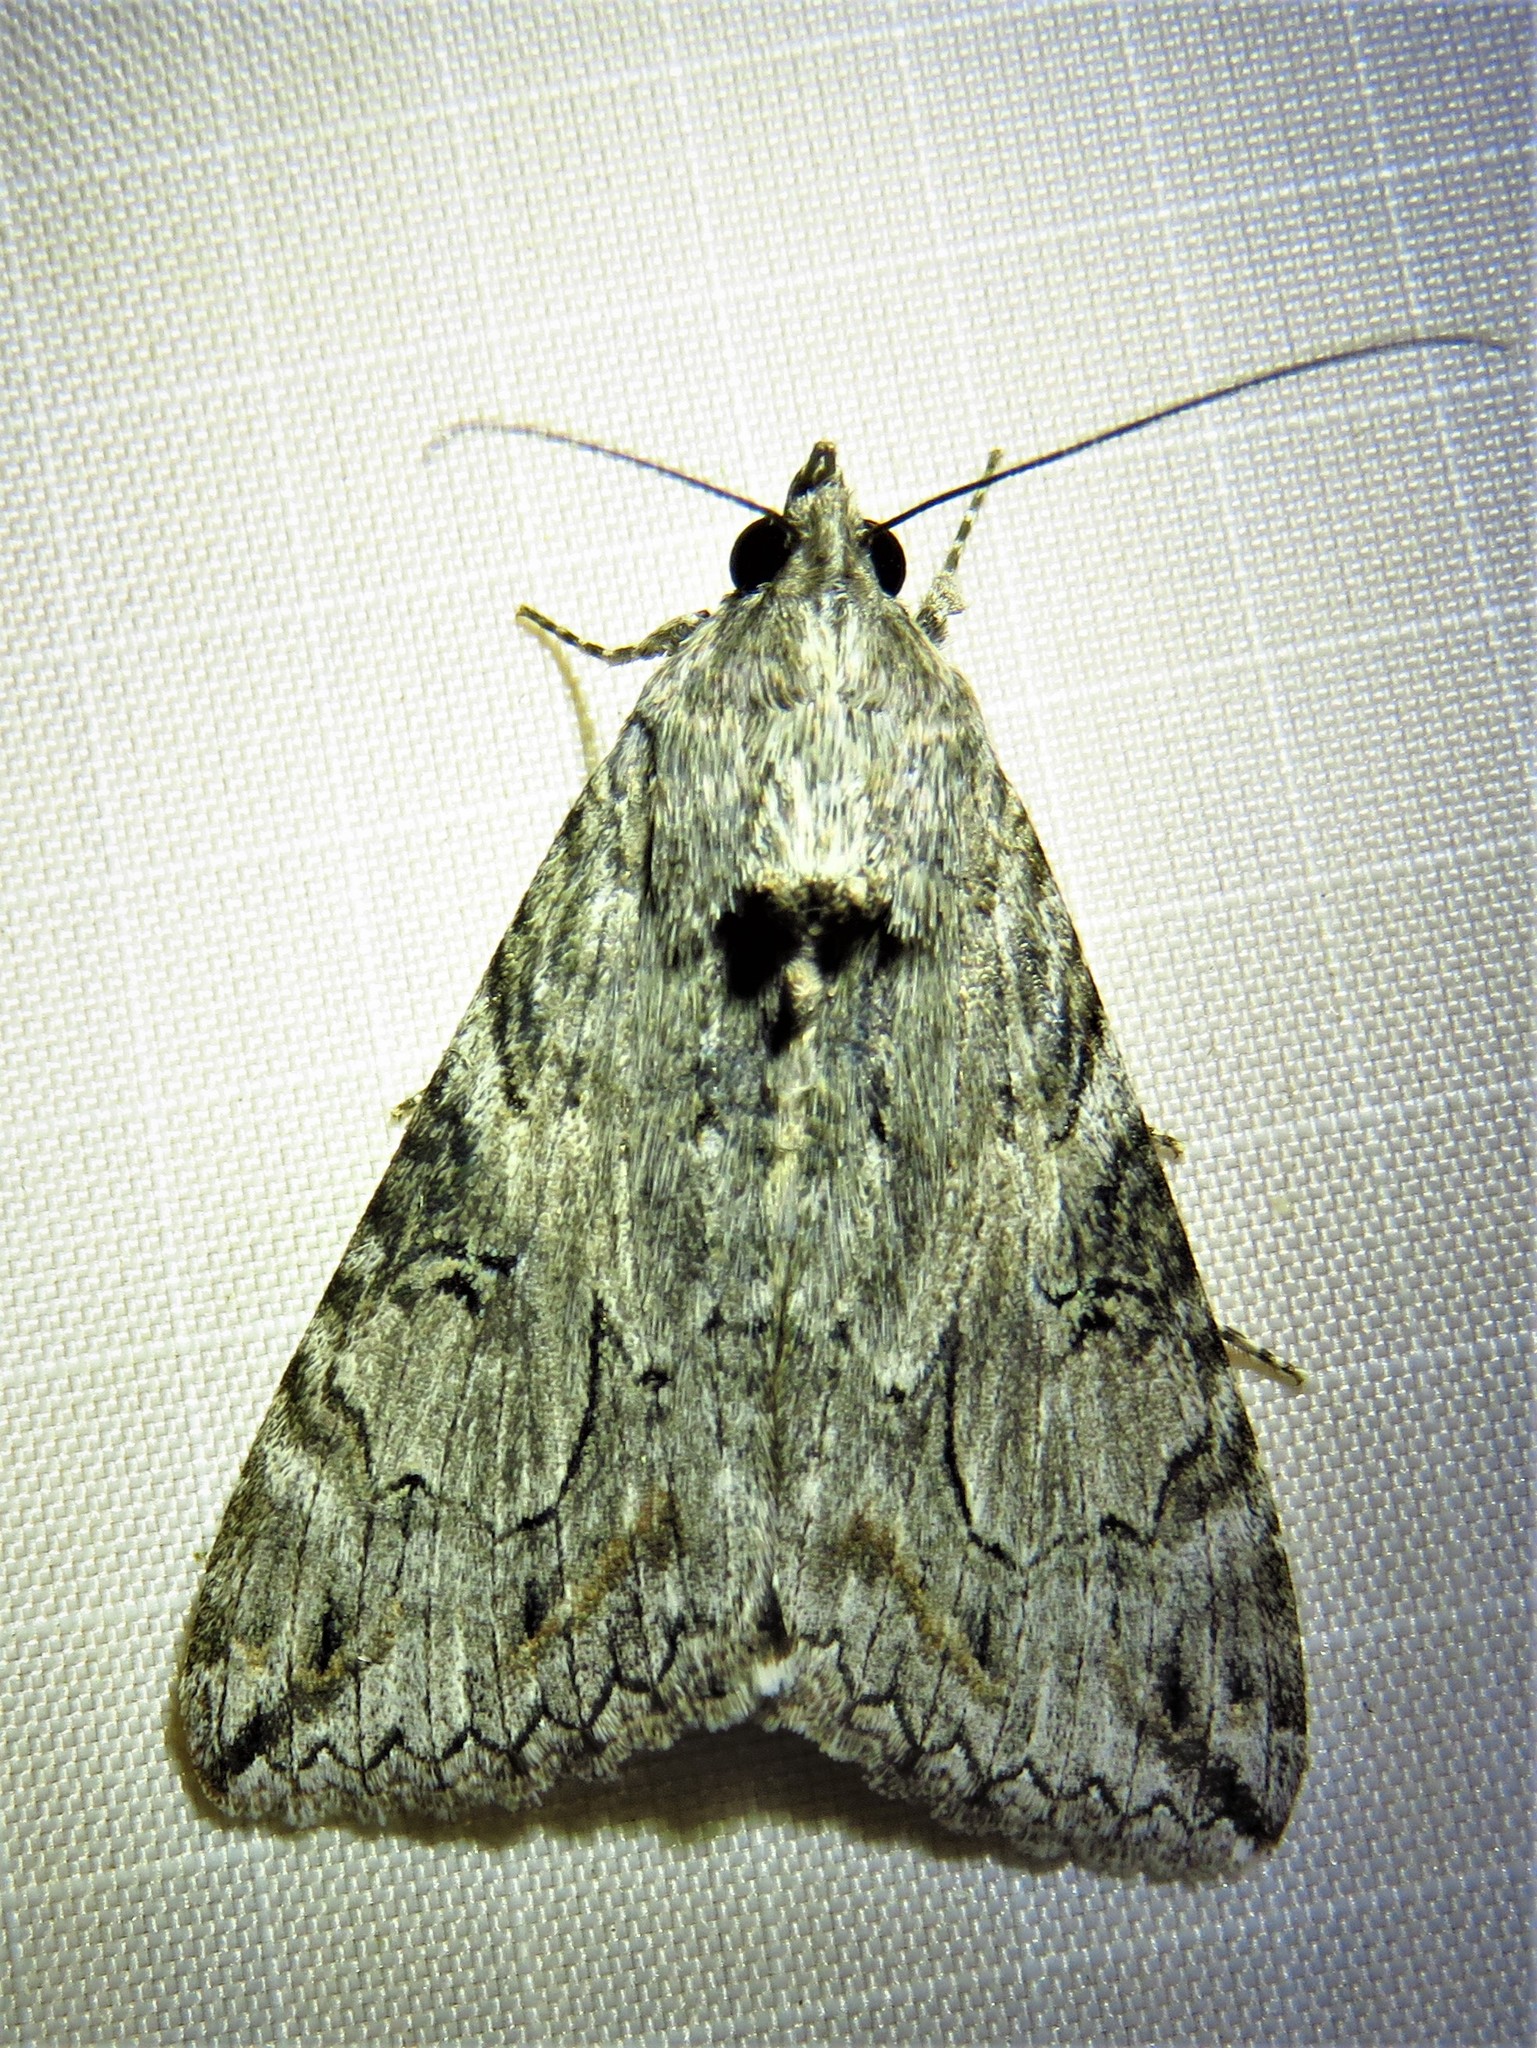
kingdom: Animalia
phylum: Arthropoda
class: Insecta
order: Lepidoptera
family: Erebidae
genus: Melipotis
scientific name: Melipotis jucunda
